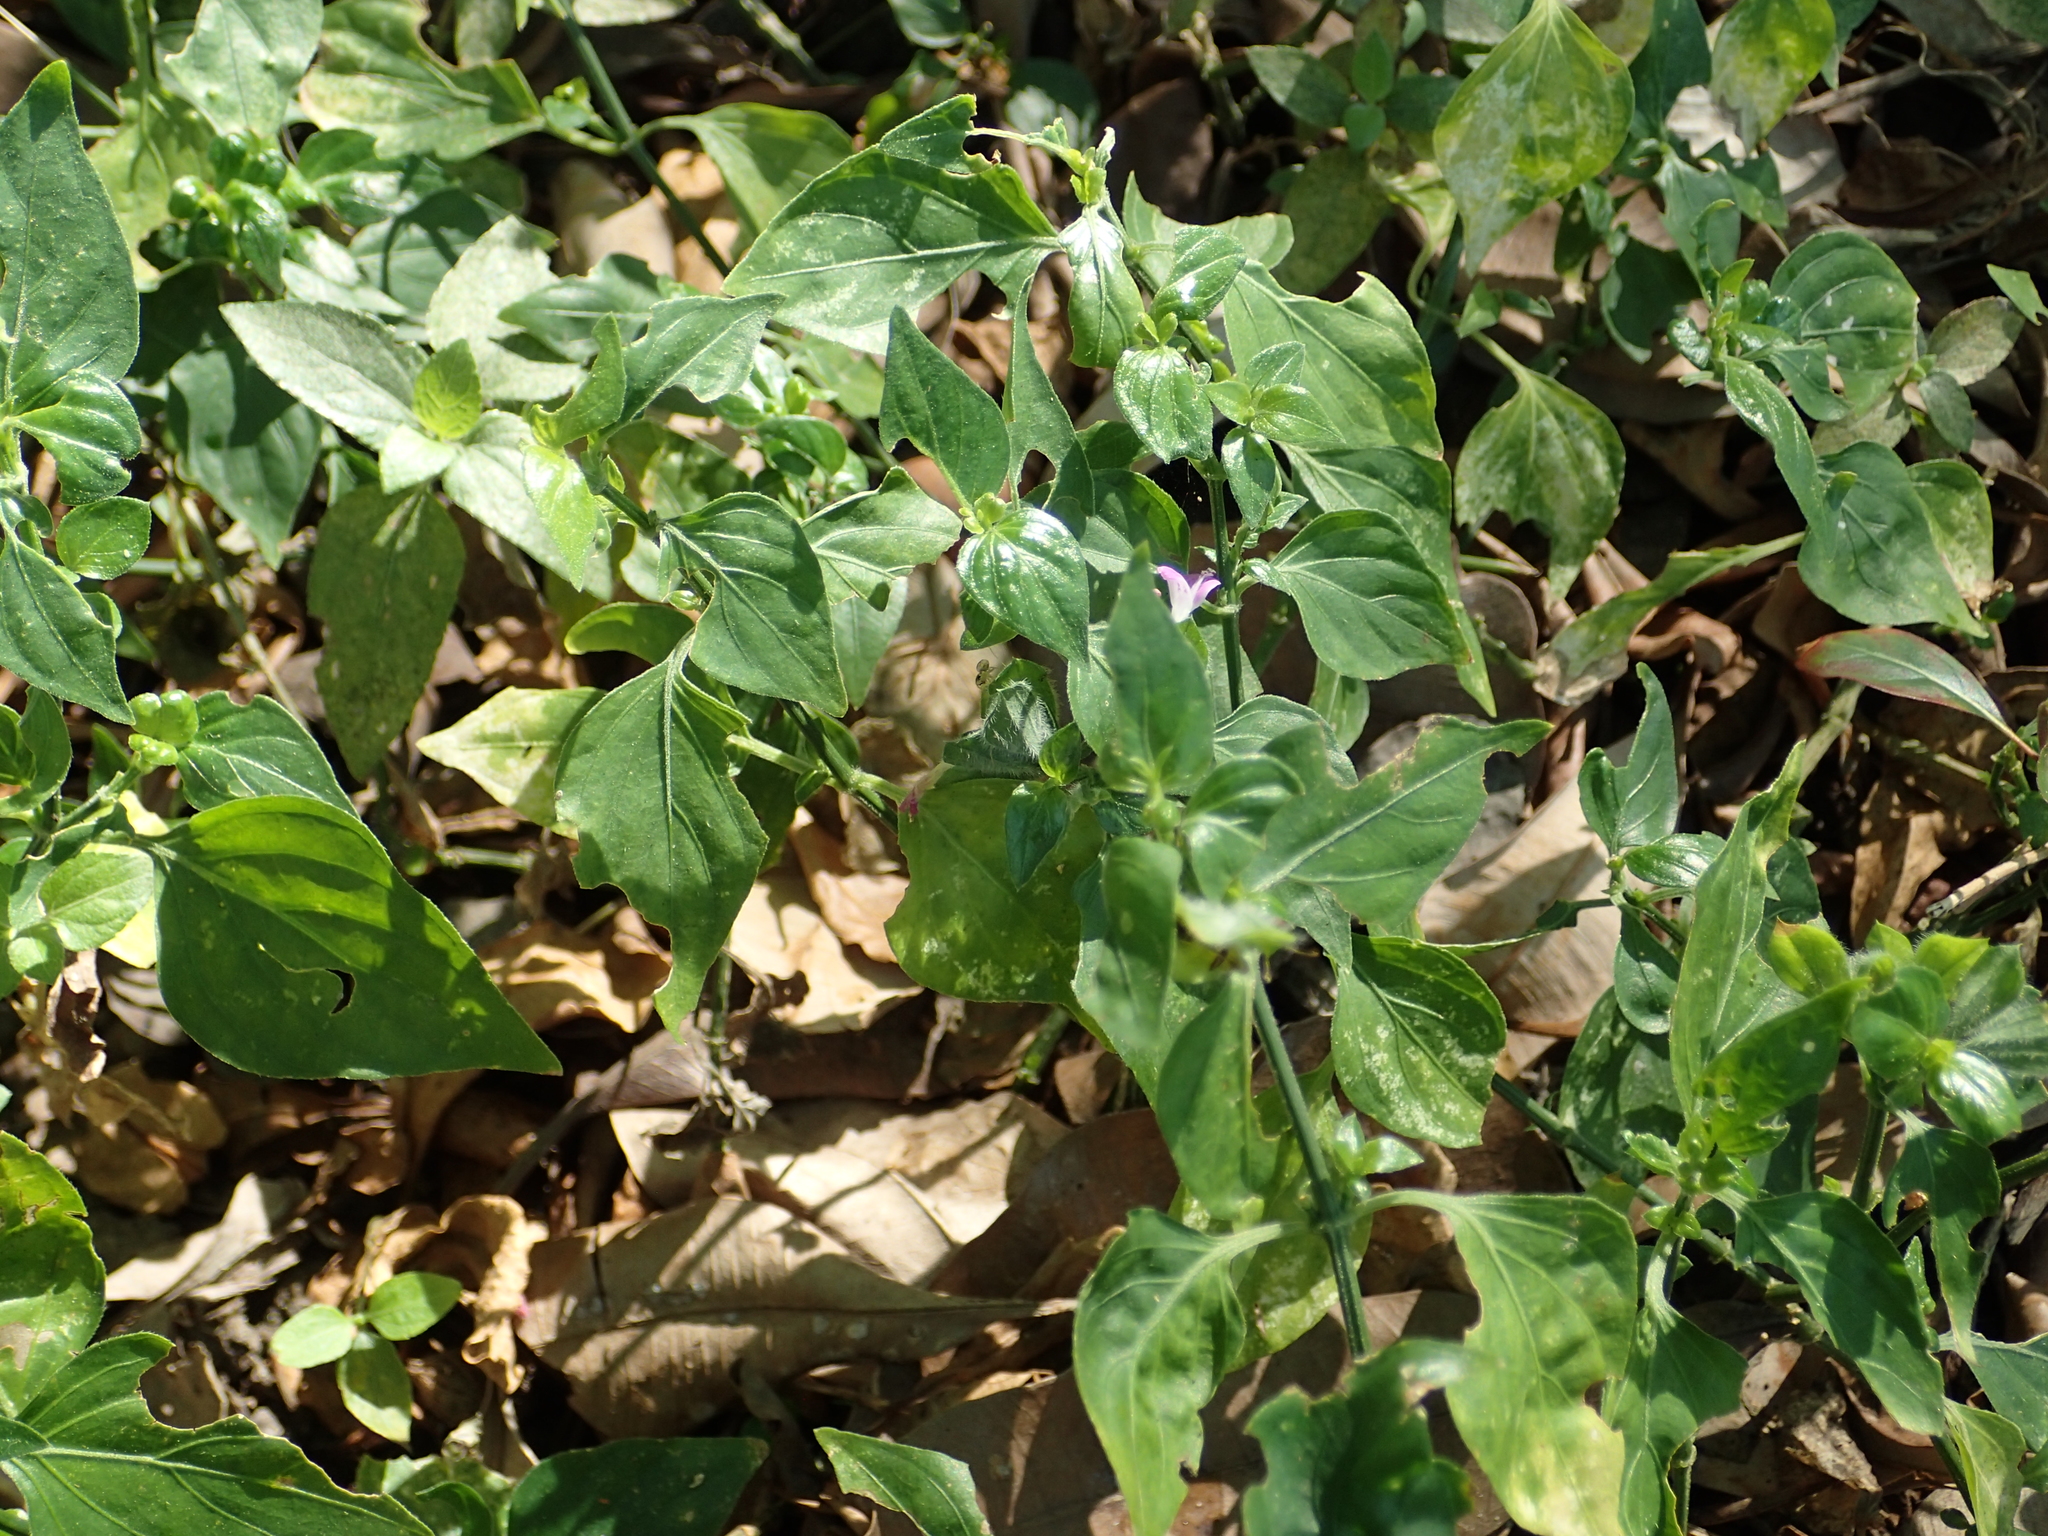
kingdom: Plantae
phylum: Tracheophyta
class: Magnoliopsida
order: Lamiales
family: Acanthaceae
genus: Dicliptera
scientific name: Dicliptera chinensis
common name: Chinese foldwing
